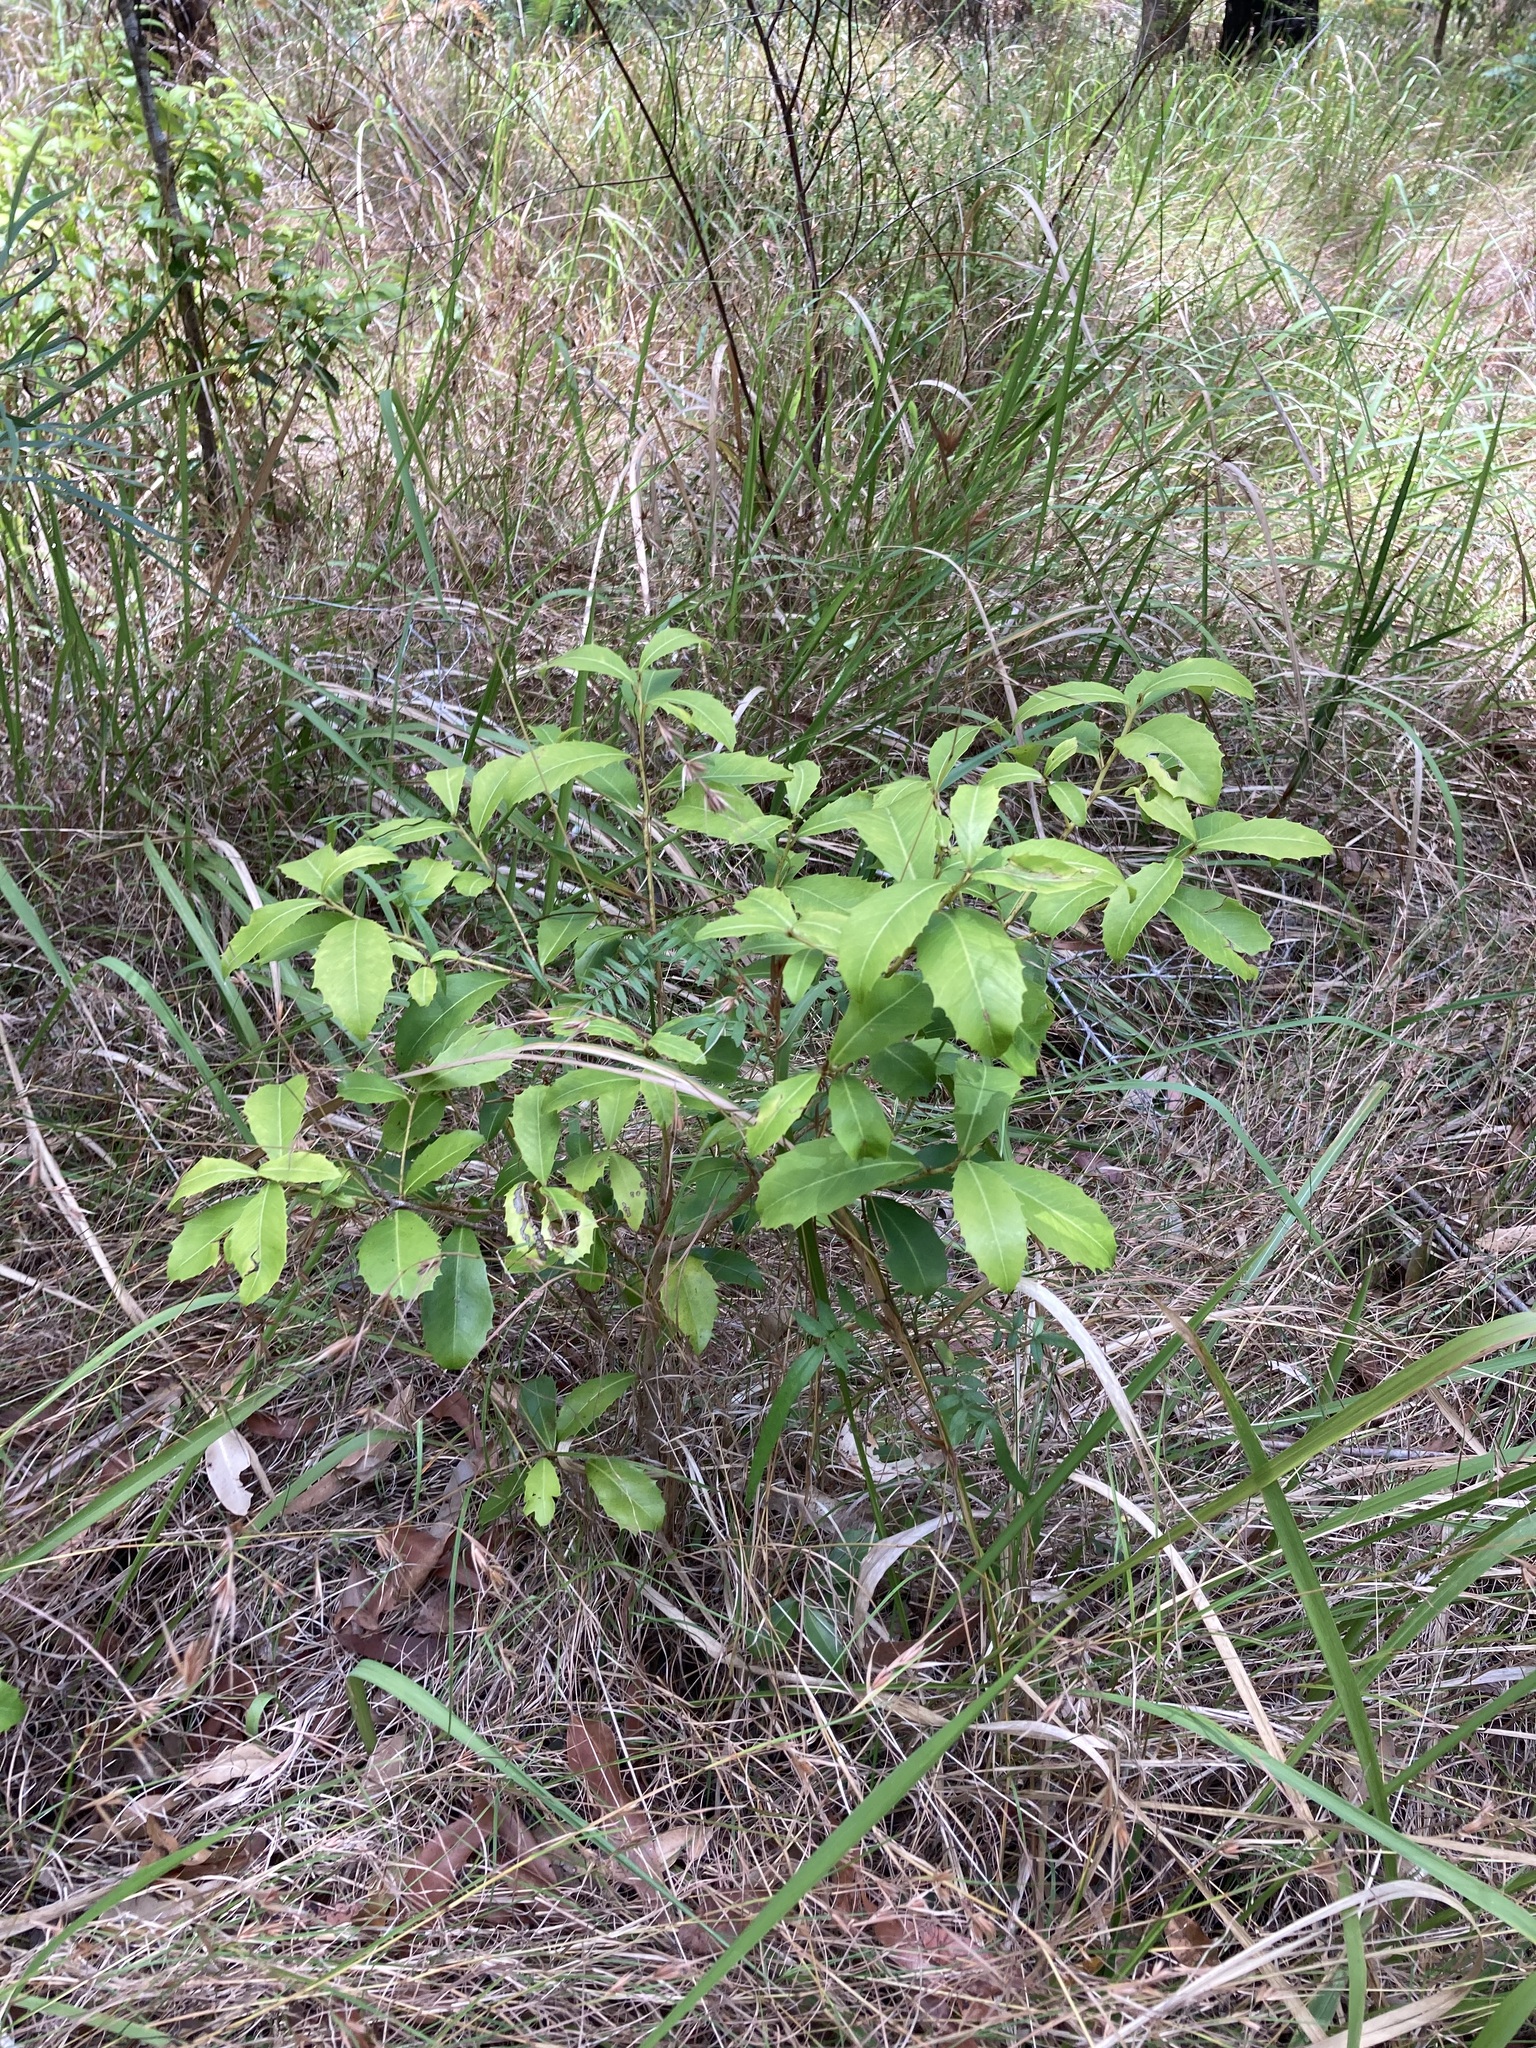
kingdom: Plantae
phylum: Tracheophyta
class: Magnoliopsida
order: Ericales
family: Primulaceae
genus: Myrsine
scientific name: Myrsine variabilis
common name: Brush muttonwood
